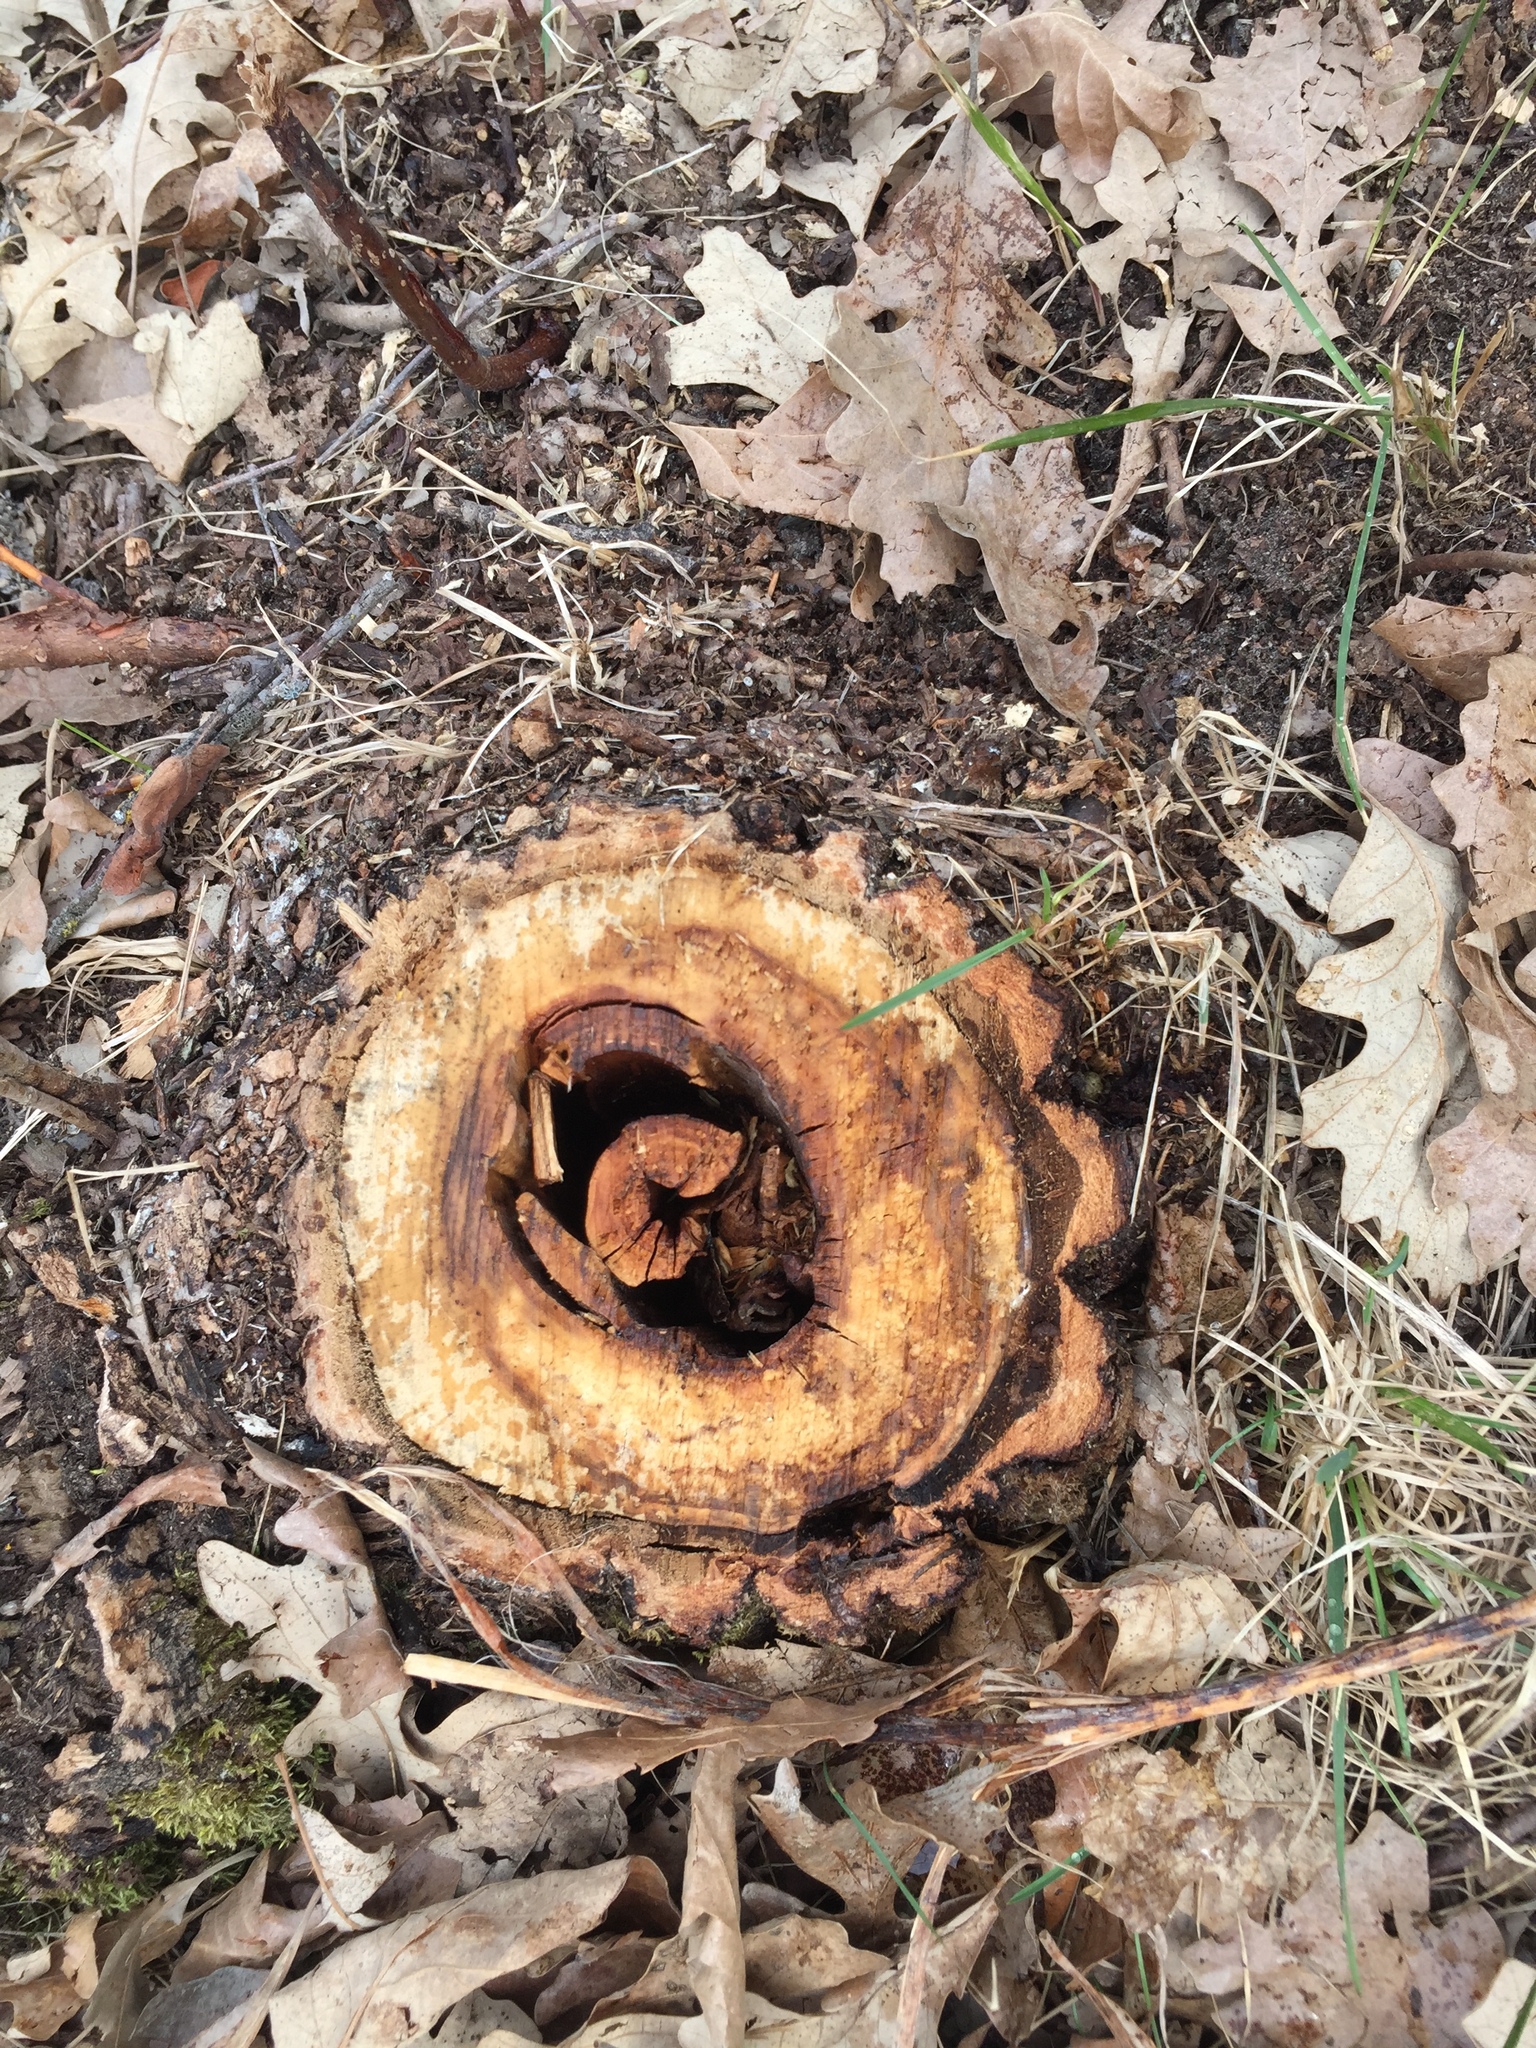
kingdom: Plantae
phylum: Tracheophyta
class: Magnoliopsida
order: Fagales
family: Fagaceae
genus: Quercus
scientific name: Quercus macrocarpa
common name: Bur oak
